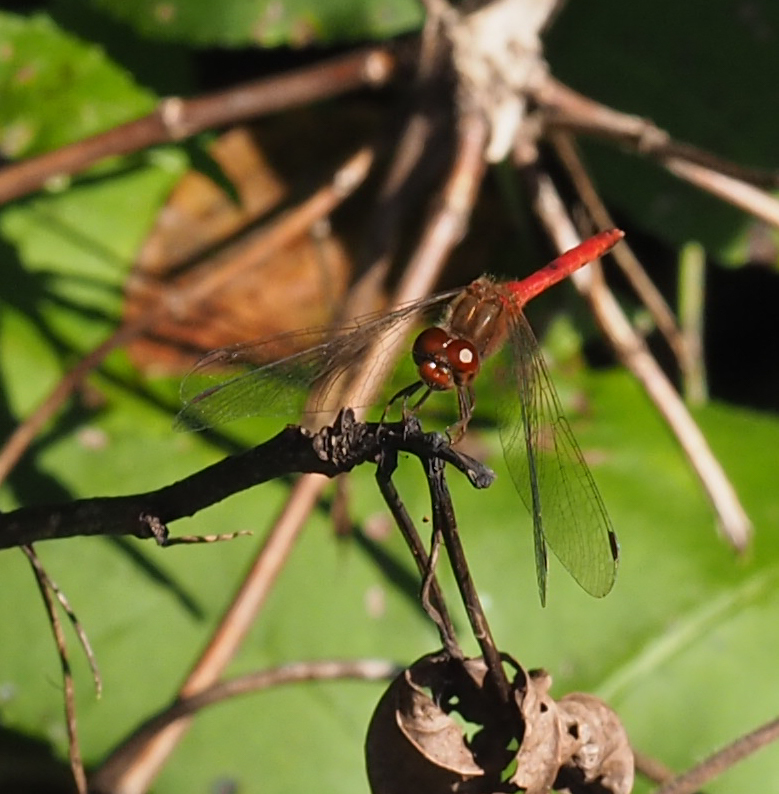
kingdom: Animalia
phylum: Arthropoda
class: Insecta
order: Odonata
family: Libellulidae
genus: Sympetrum
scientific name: Sympetrum vicinum
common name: Autumn meadowhawk
